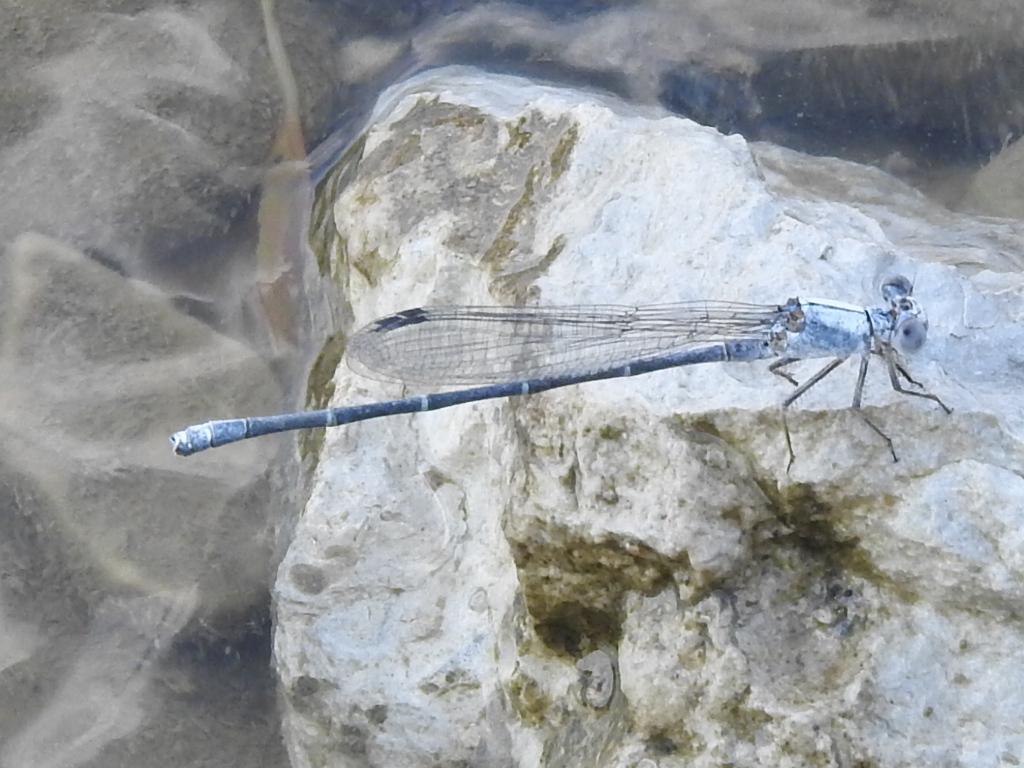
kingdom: Animalia
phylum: Arthropoda
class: Insecta
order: Odonata
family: Coenagrionidae
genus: Argia
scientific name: Argia moesta
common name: Powdered dancer
